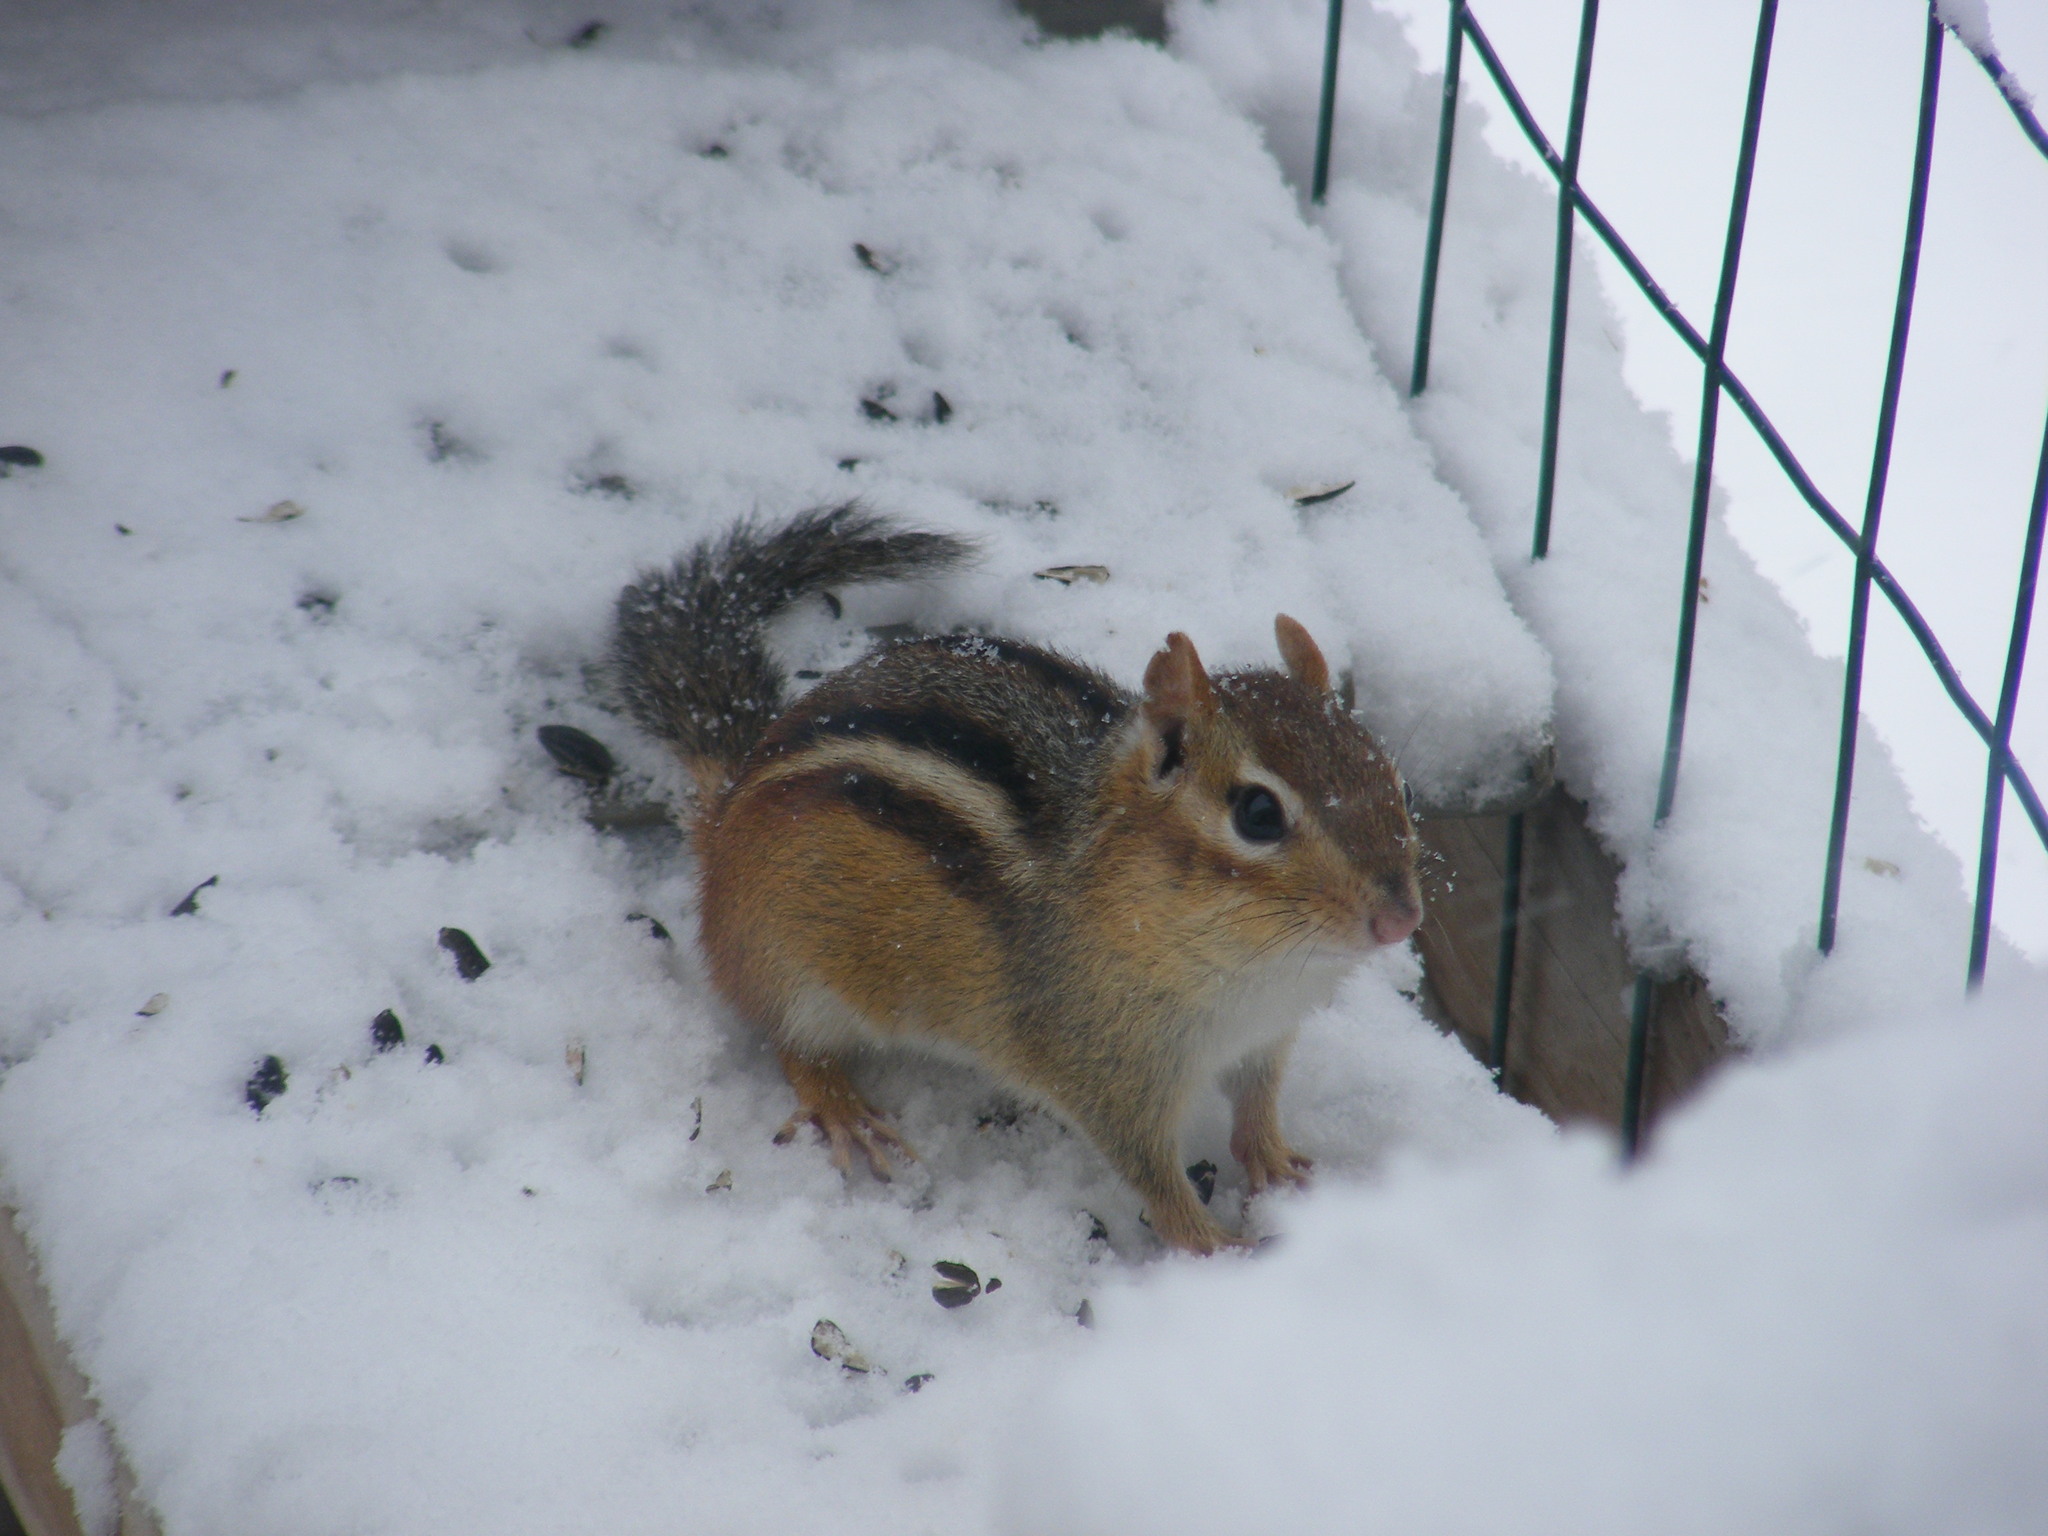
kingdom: Animalia
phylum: Chordata
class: Mammalia
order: Rodentia
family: Sciuridae
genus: Tamias
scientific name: Tamias striatus
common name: Eastern chipmunk
